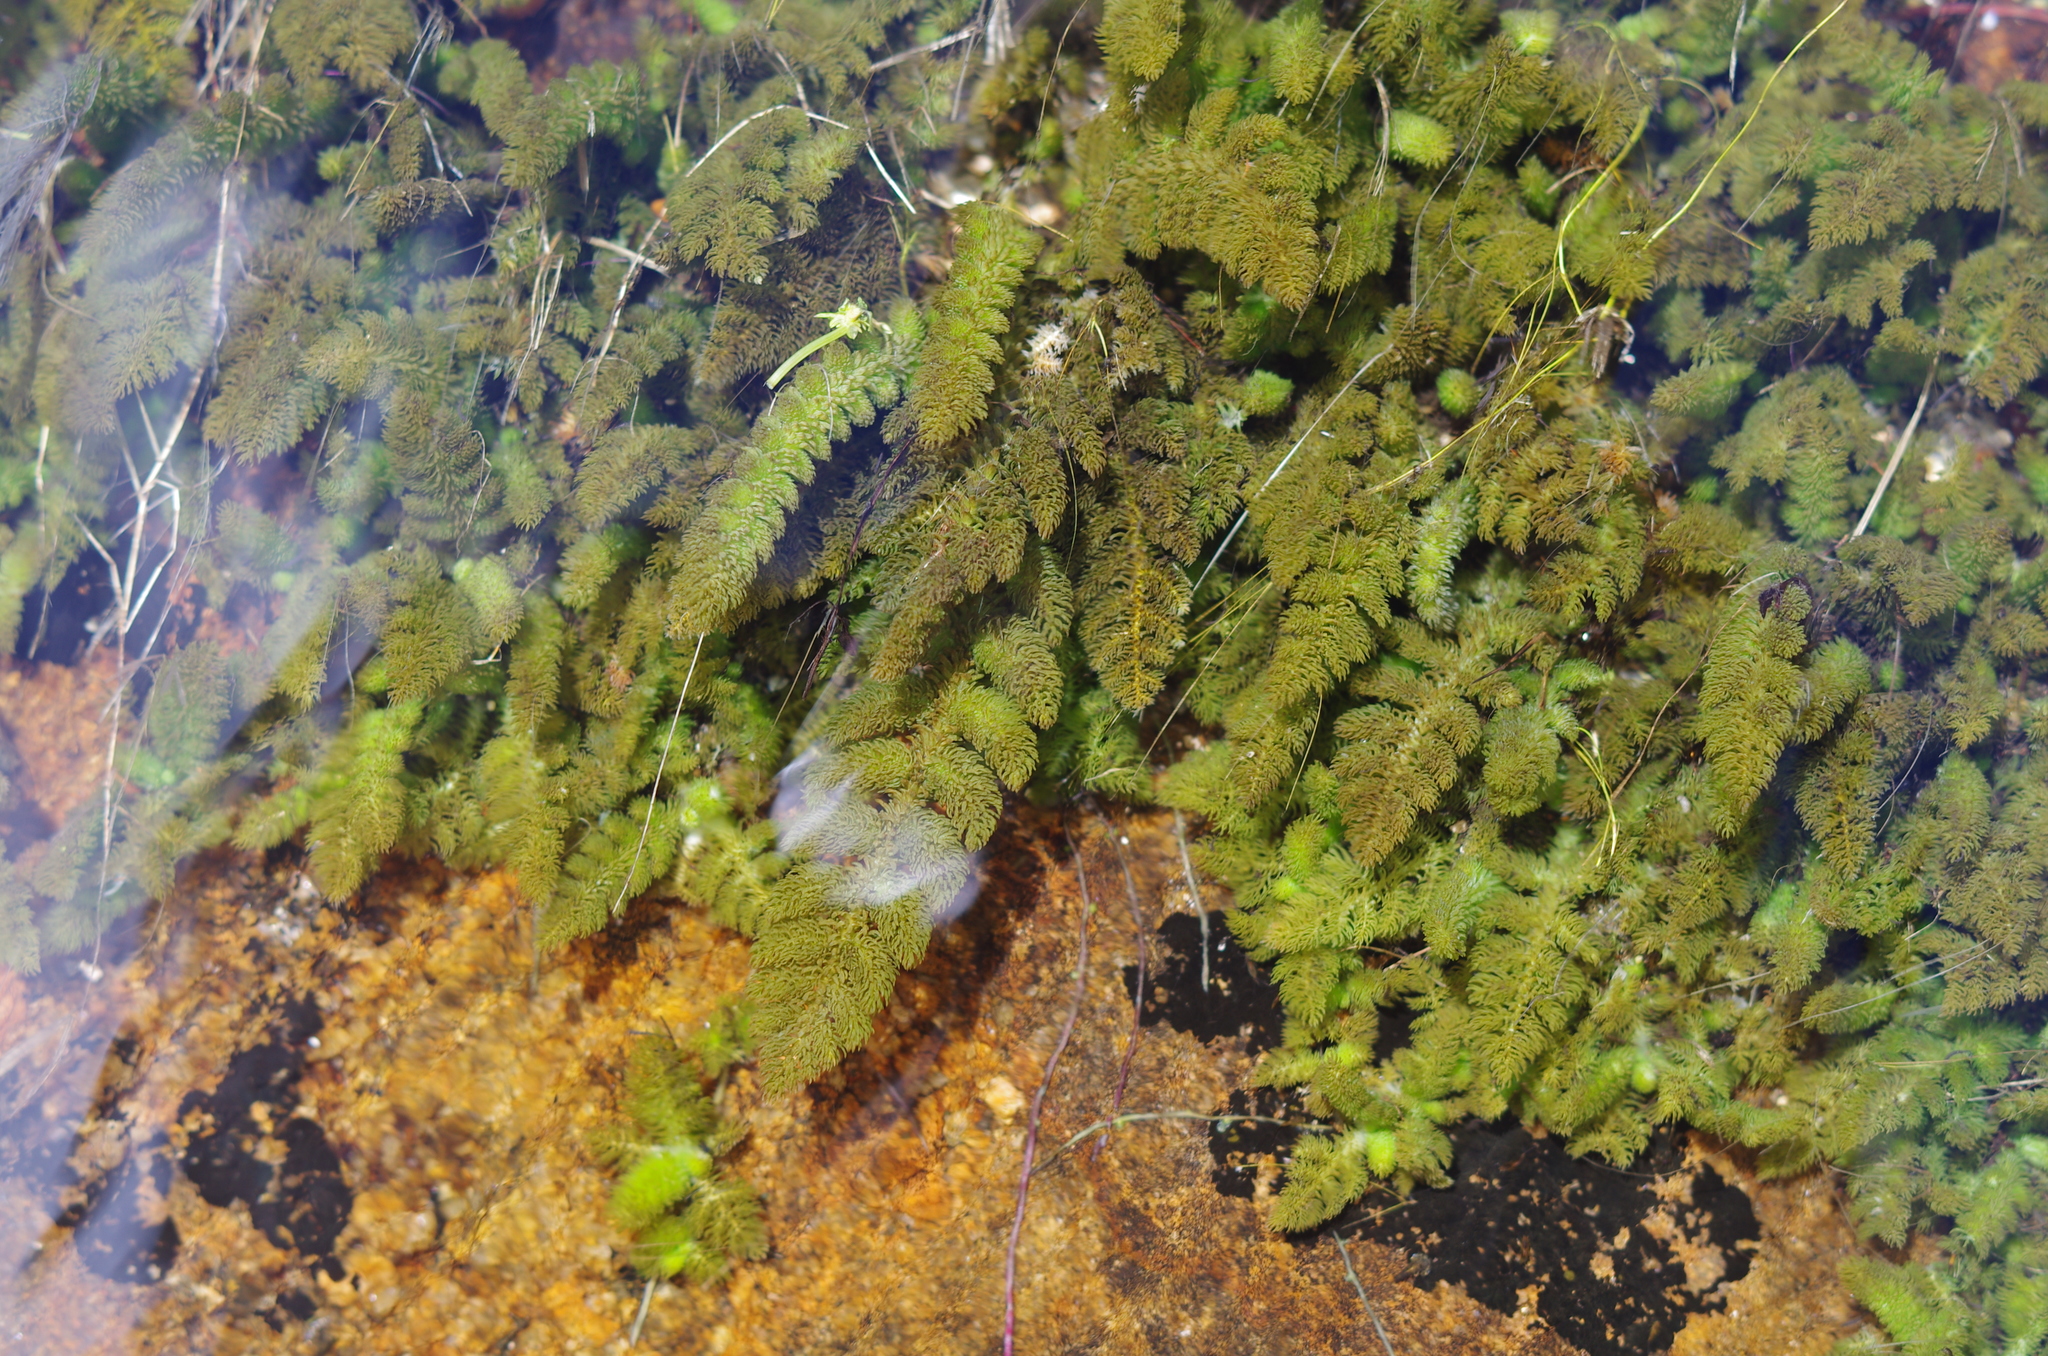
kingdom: Plantae
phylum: Tracheophyta
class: Magnoliopsida
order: Cornales
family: Hydrostachyaceae
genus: Hydrostachys
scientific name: Hydrostachys fimbriata
